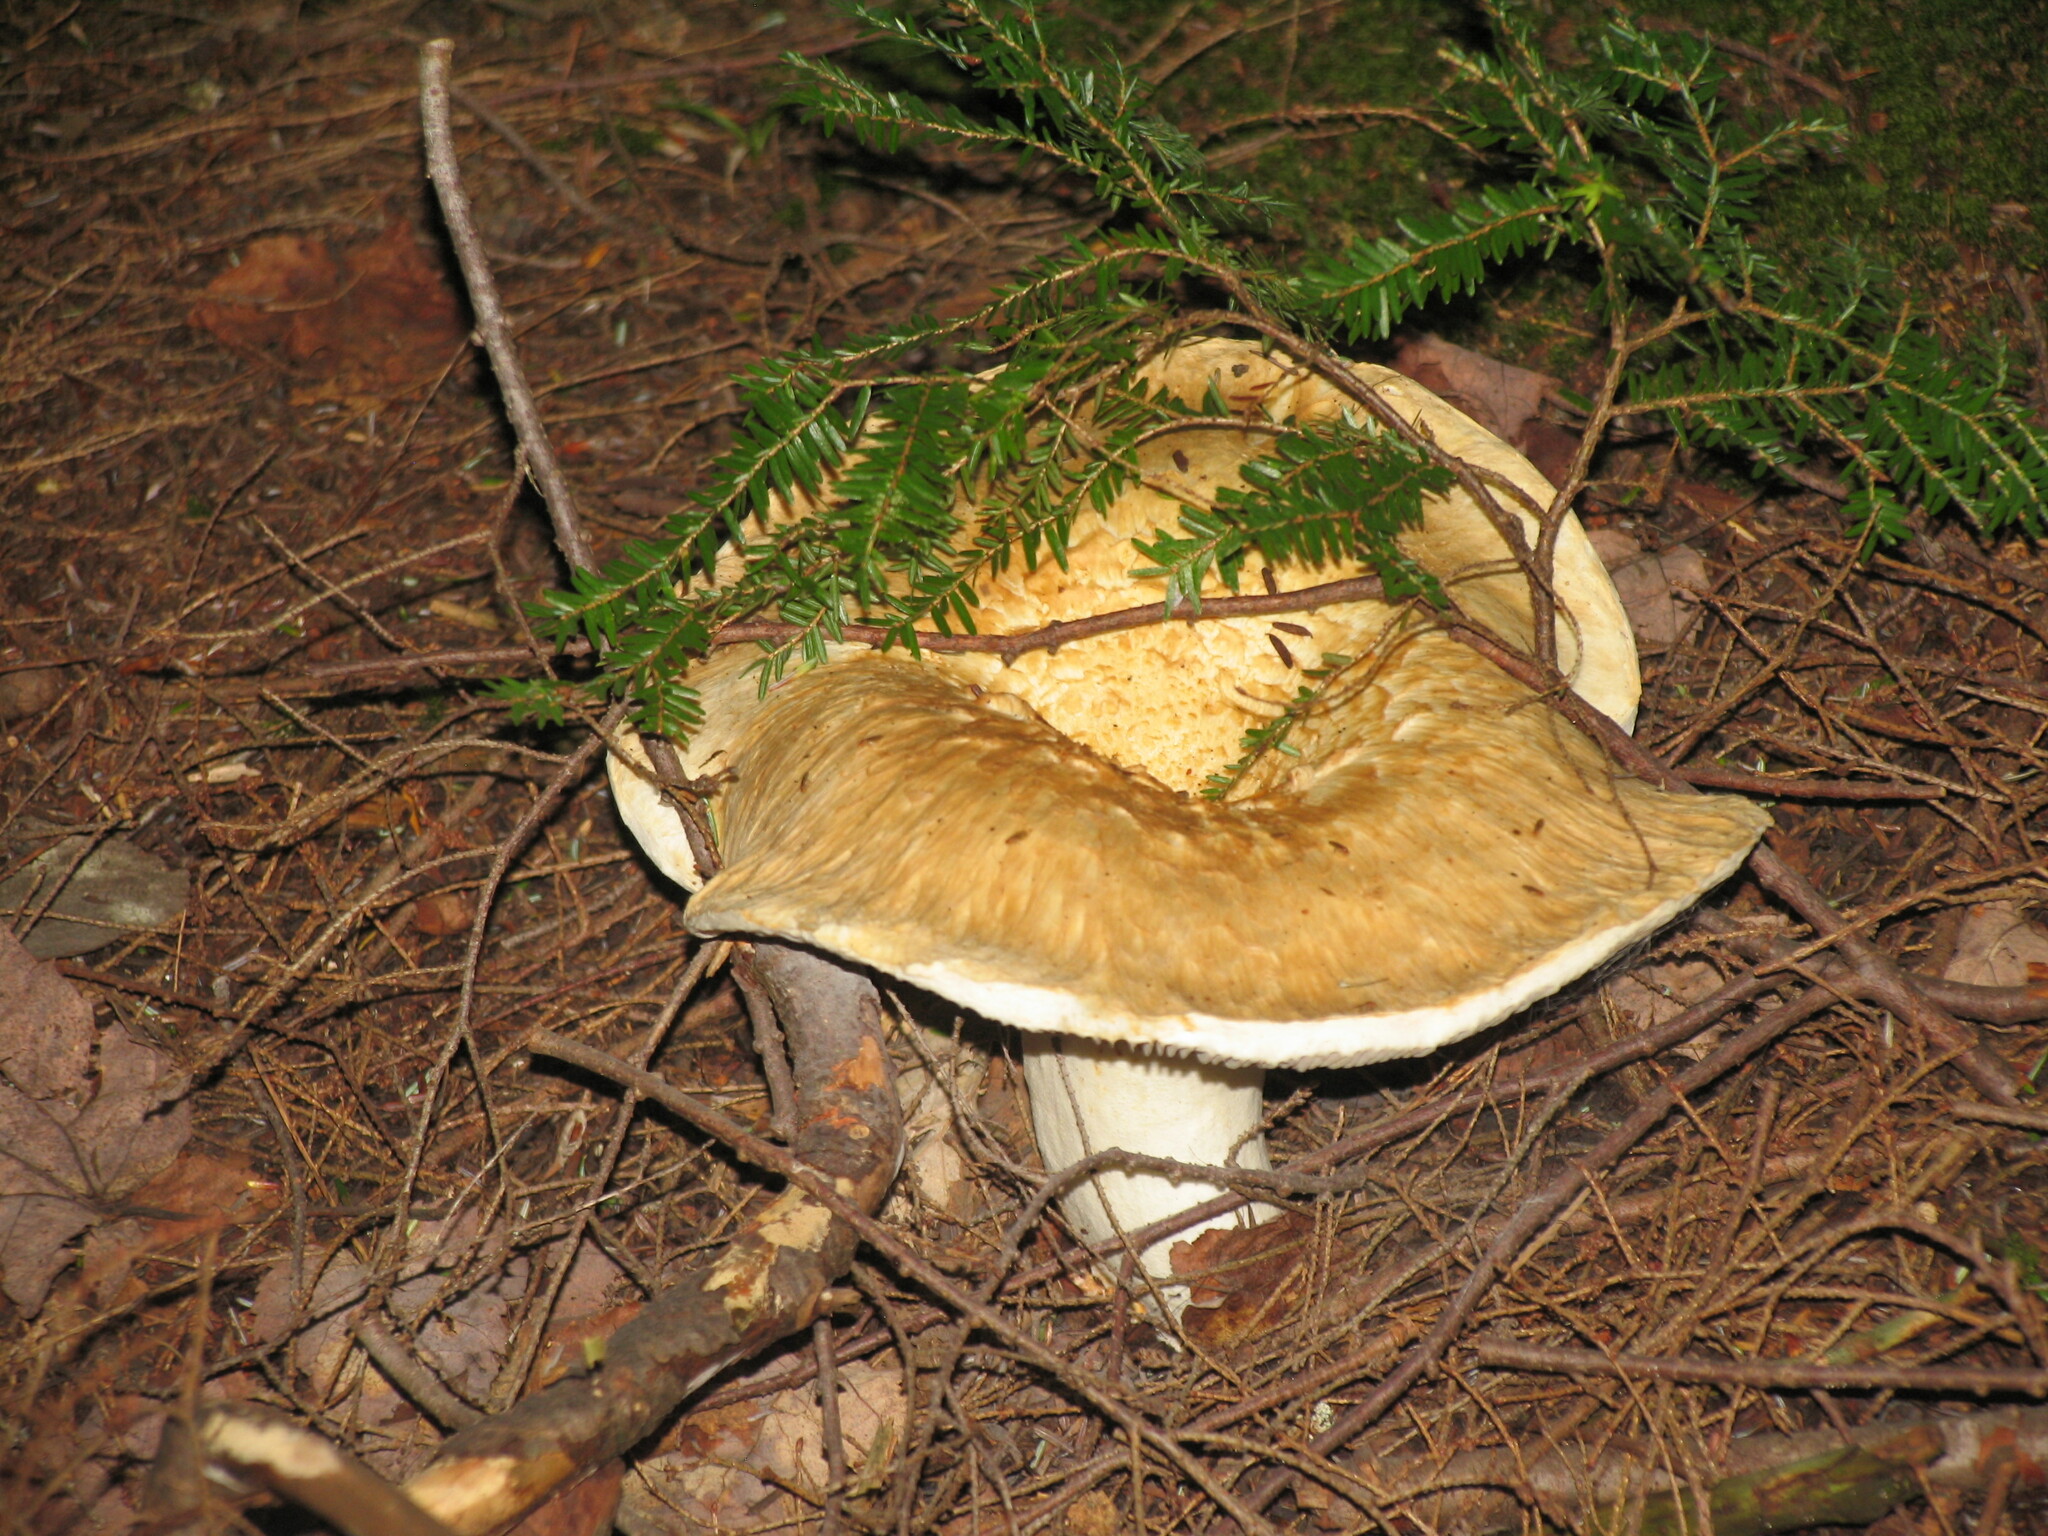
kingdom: Plantae
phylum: Tracheophyta
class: Pinopsida
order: Pinales
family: Pinaceae
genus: Tsuga
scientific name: Tsuga canadensis
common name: Eastern hemlock
